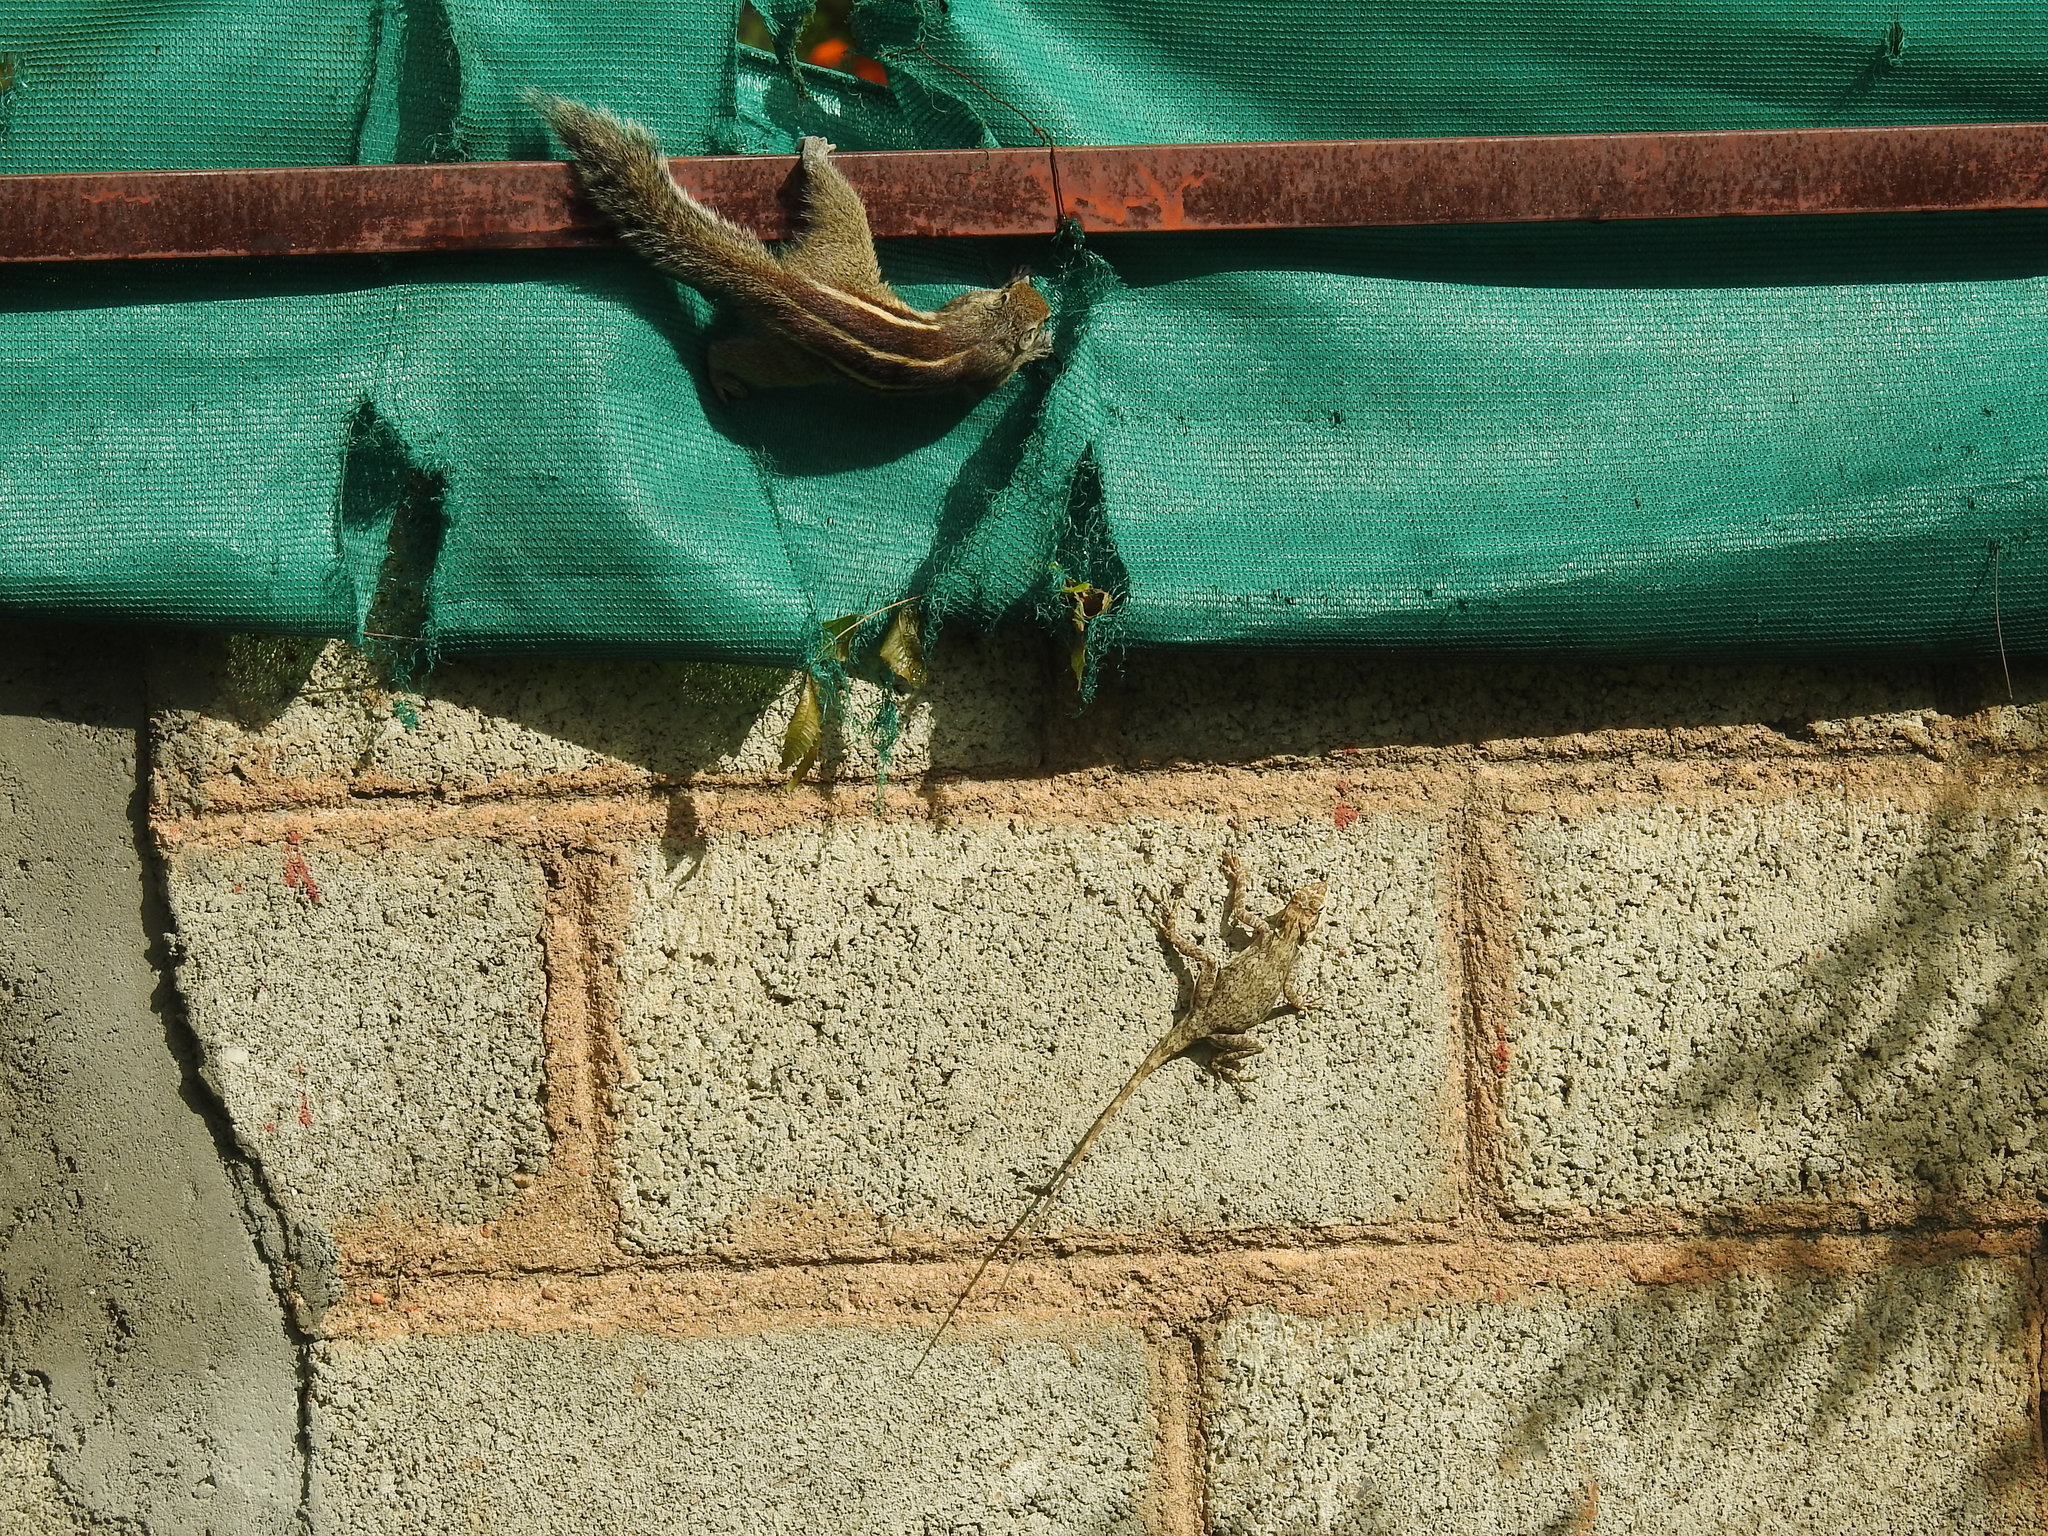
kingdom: Animalia
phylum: Chordata
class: Squamata
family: Agamidae
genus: Psammophilus
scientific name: Psammophilus dorsalis
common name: South indian rock agama
